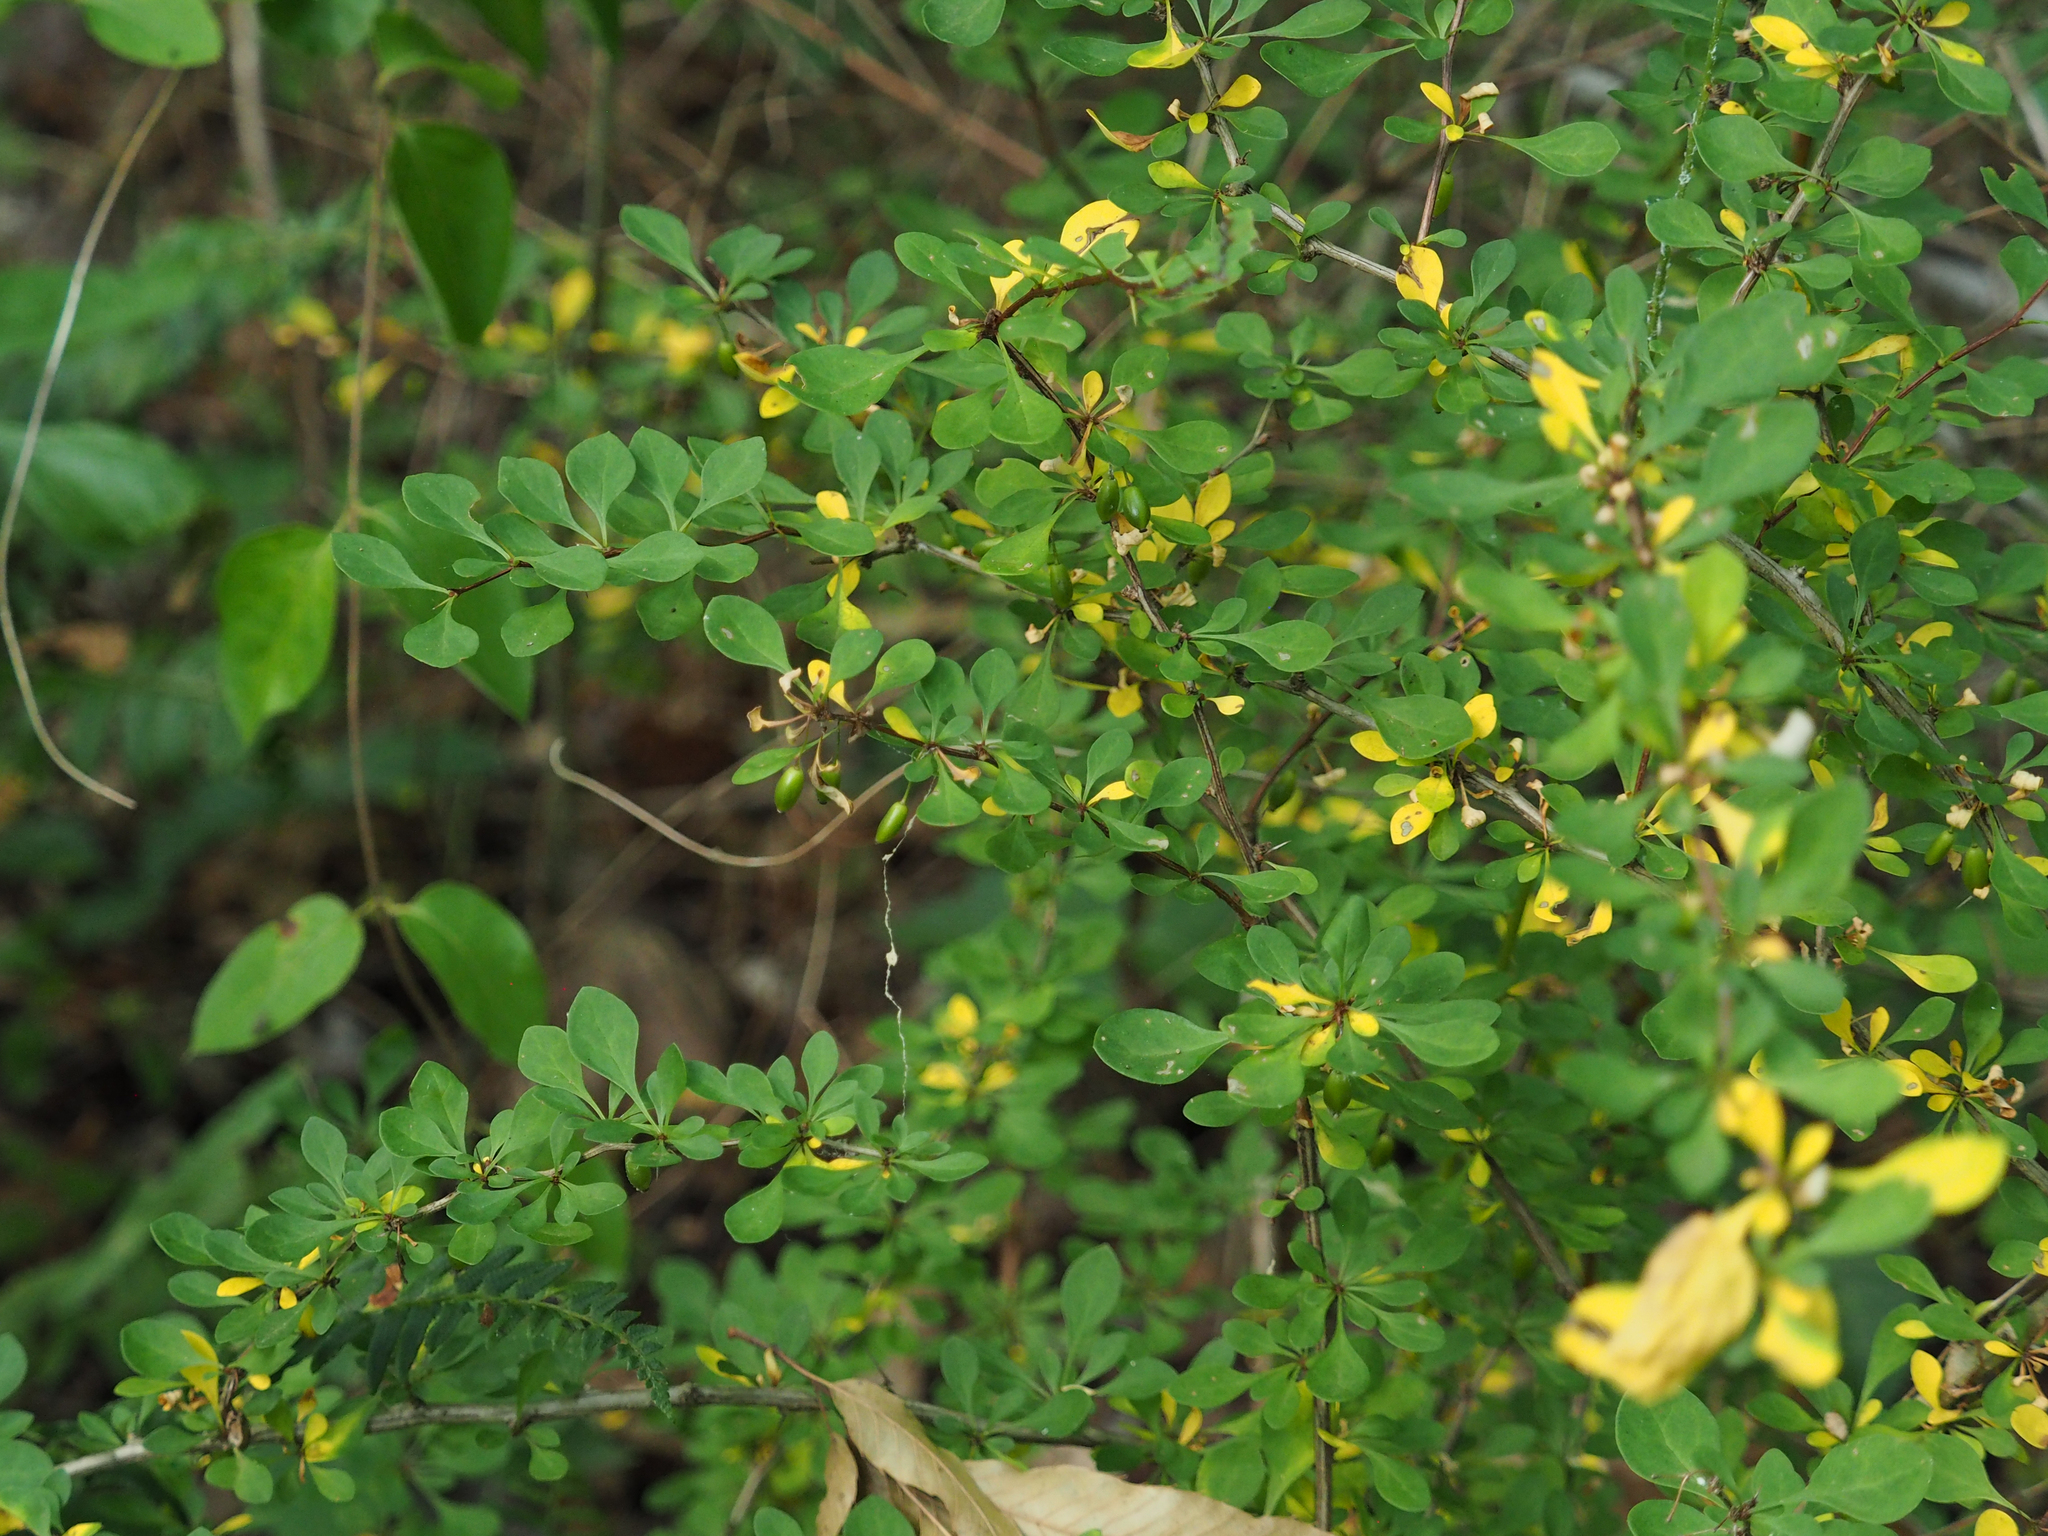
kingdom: Plantae
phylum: Tracheophyta
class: Magnoliopsida
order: Ranunculales
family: Berberidaceae
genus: Berberis
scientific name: Berberis thunbergii
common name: Japanese barberry
